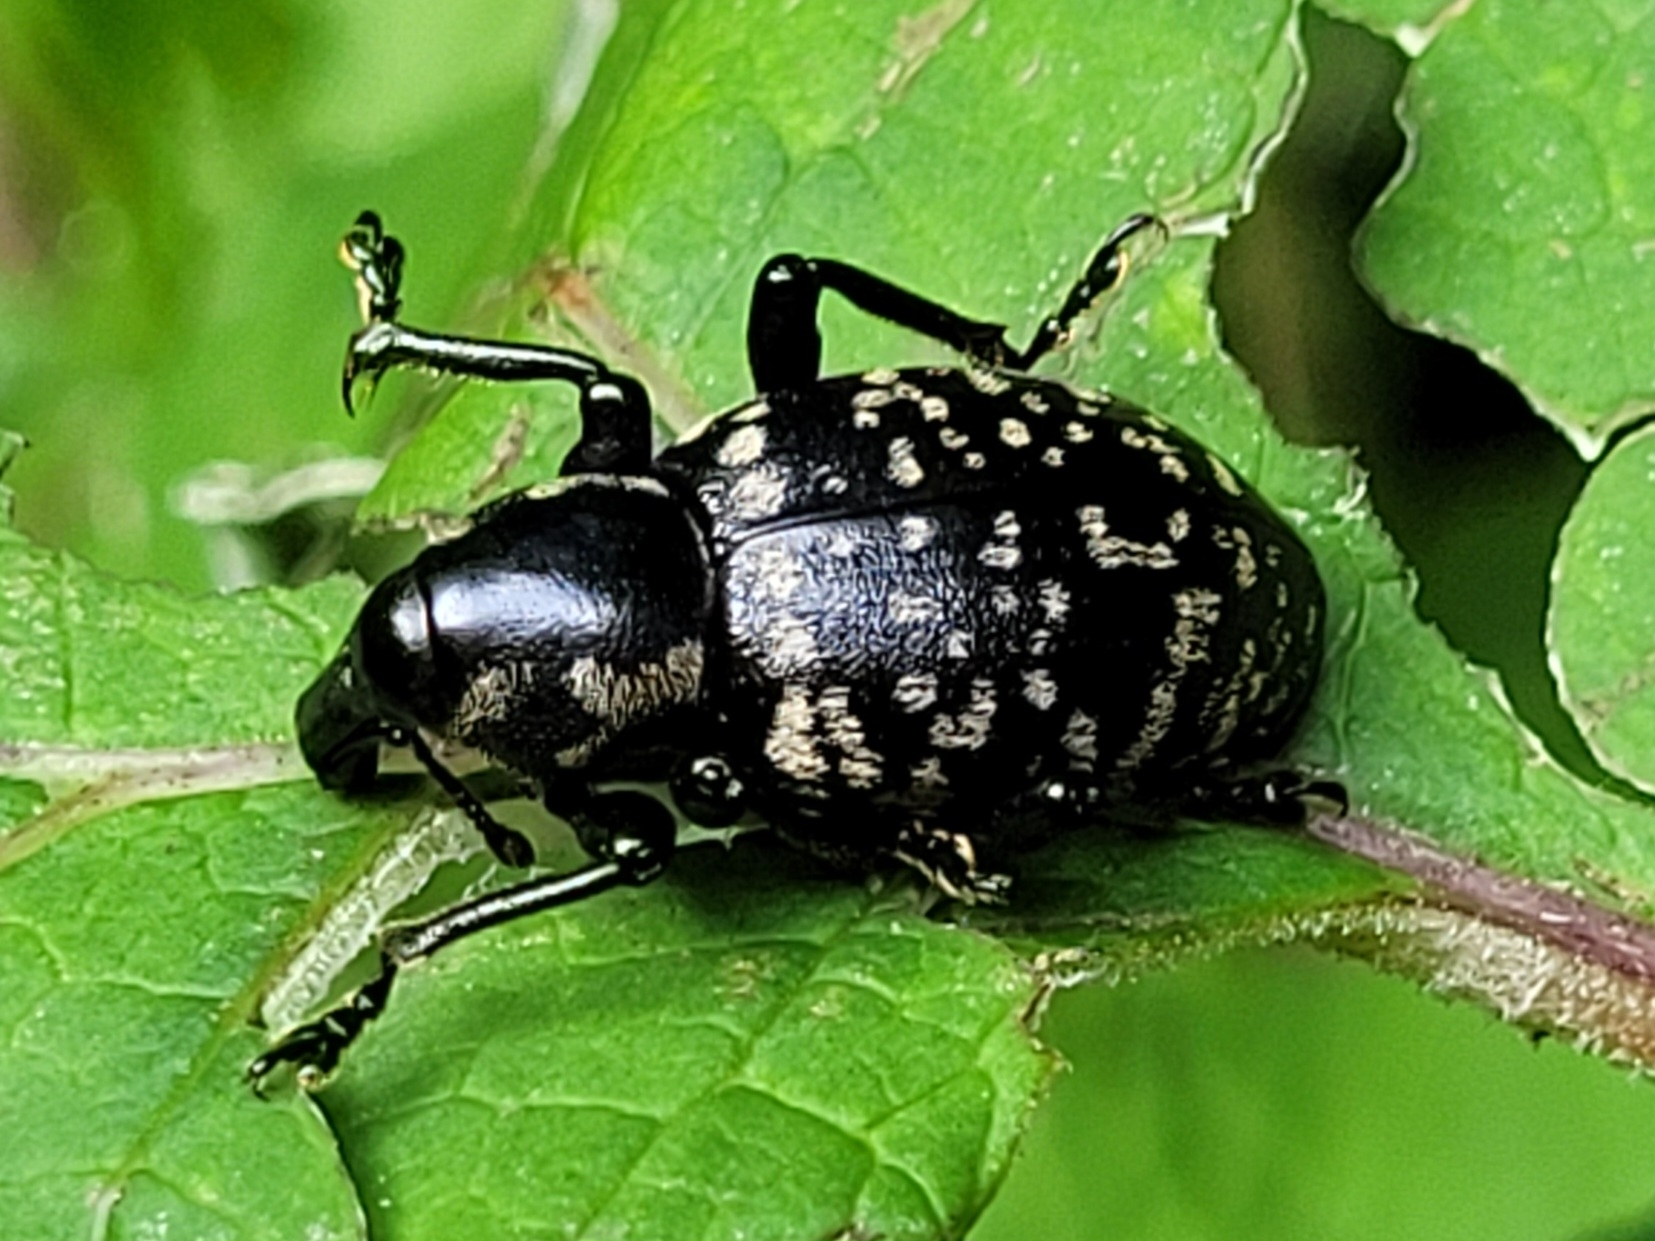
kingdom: Animalia
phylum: Arthropoda
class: Insecta
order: Coleoptera
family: Curculionidae
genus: Liparus
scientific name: Liparus glabrirostris
